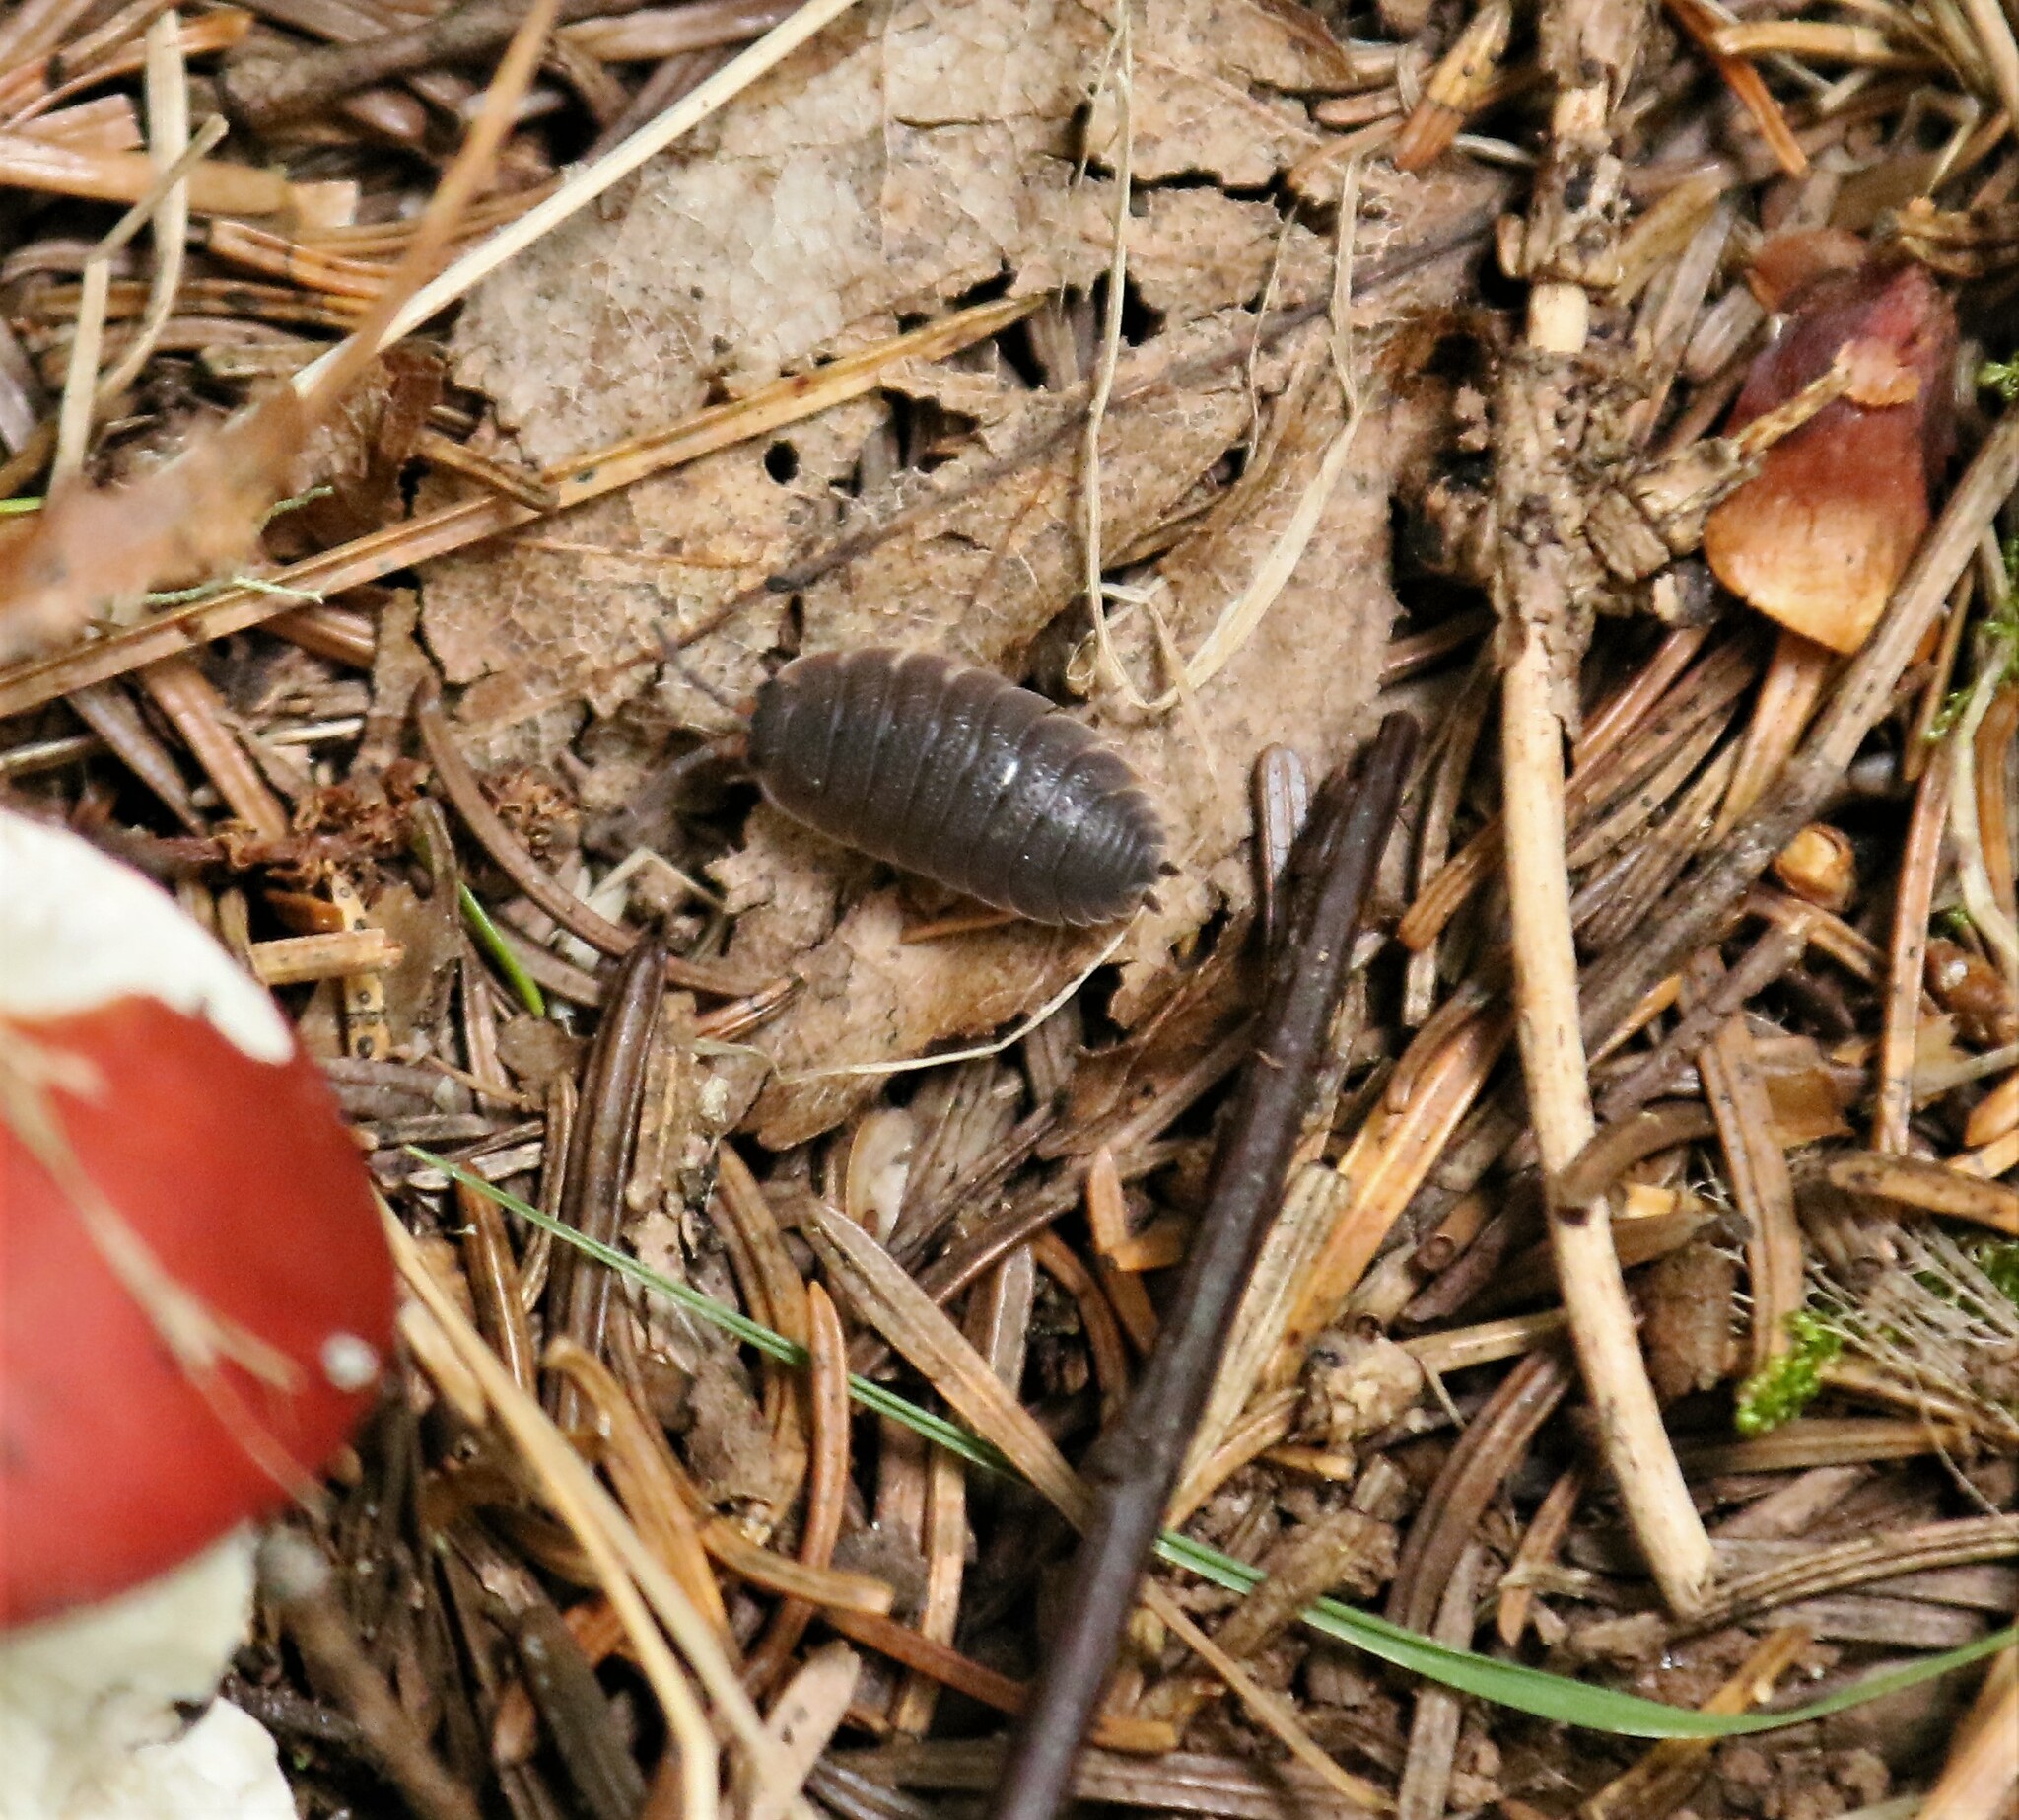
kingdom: Animalia
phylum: Arthropoda
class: Malacostraca
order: Isopoda
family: Porcellionidae
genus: Porcellio
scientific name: Porcellio scaber
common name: Common rough woodlouse
